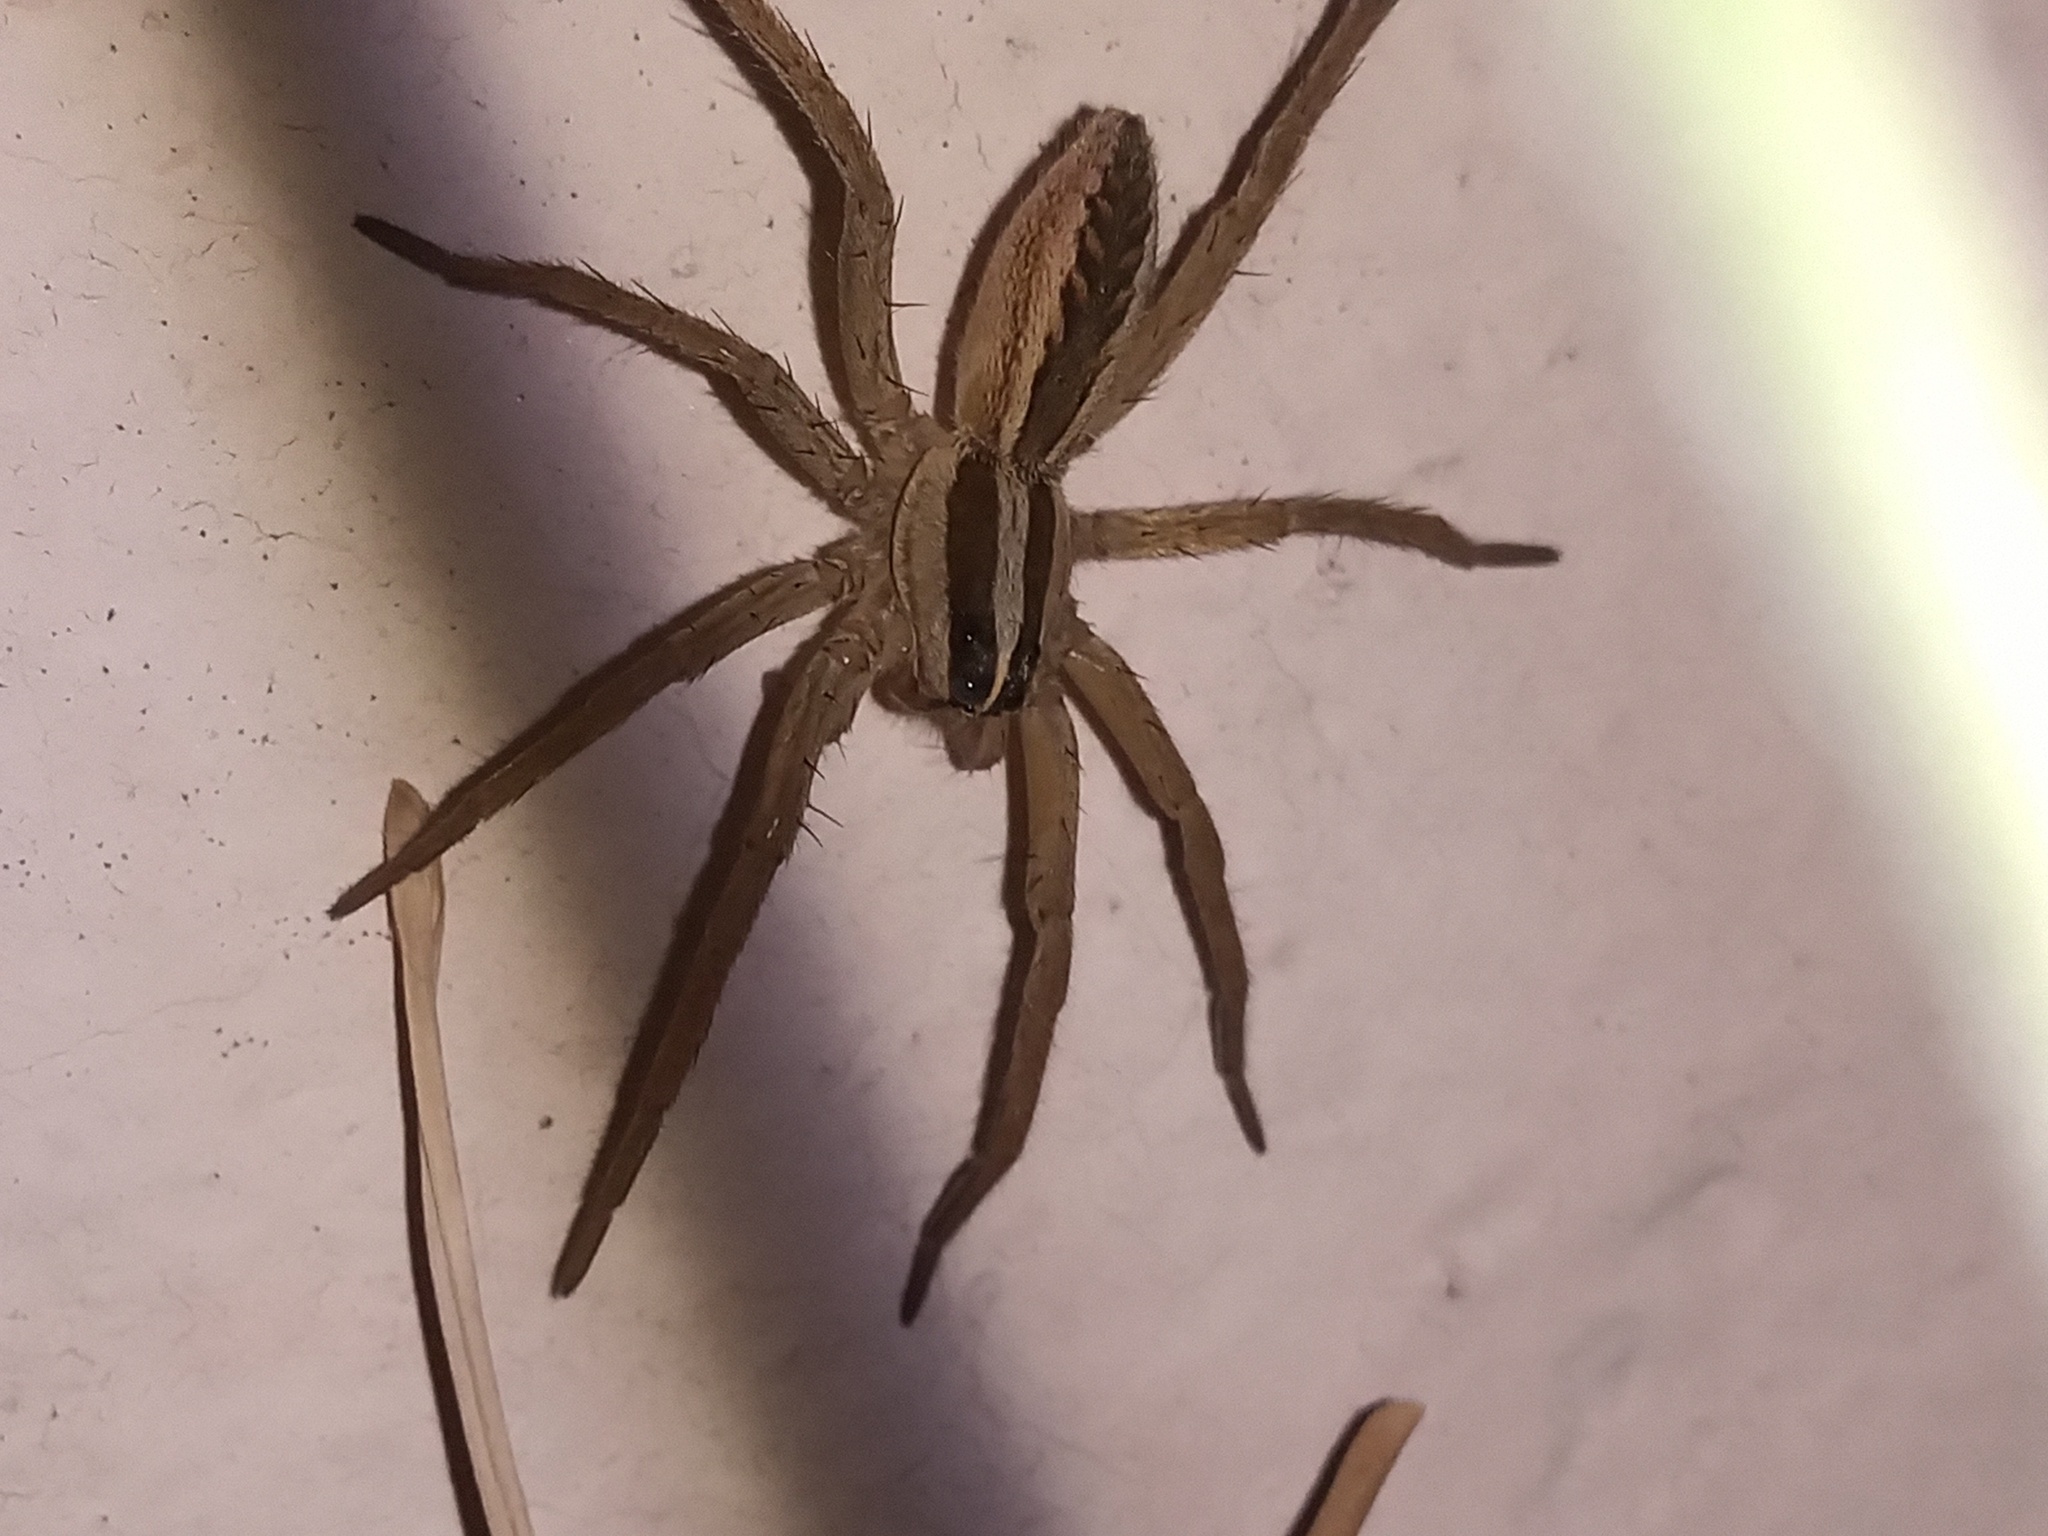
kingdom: Animalia
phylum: Arthropoda
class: Arachnida
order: Araneae
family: Lycosidae
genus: Rabidosa
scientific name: Rabidosa rabida
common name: Rabid wolf spider
